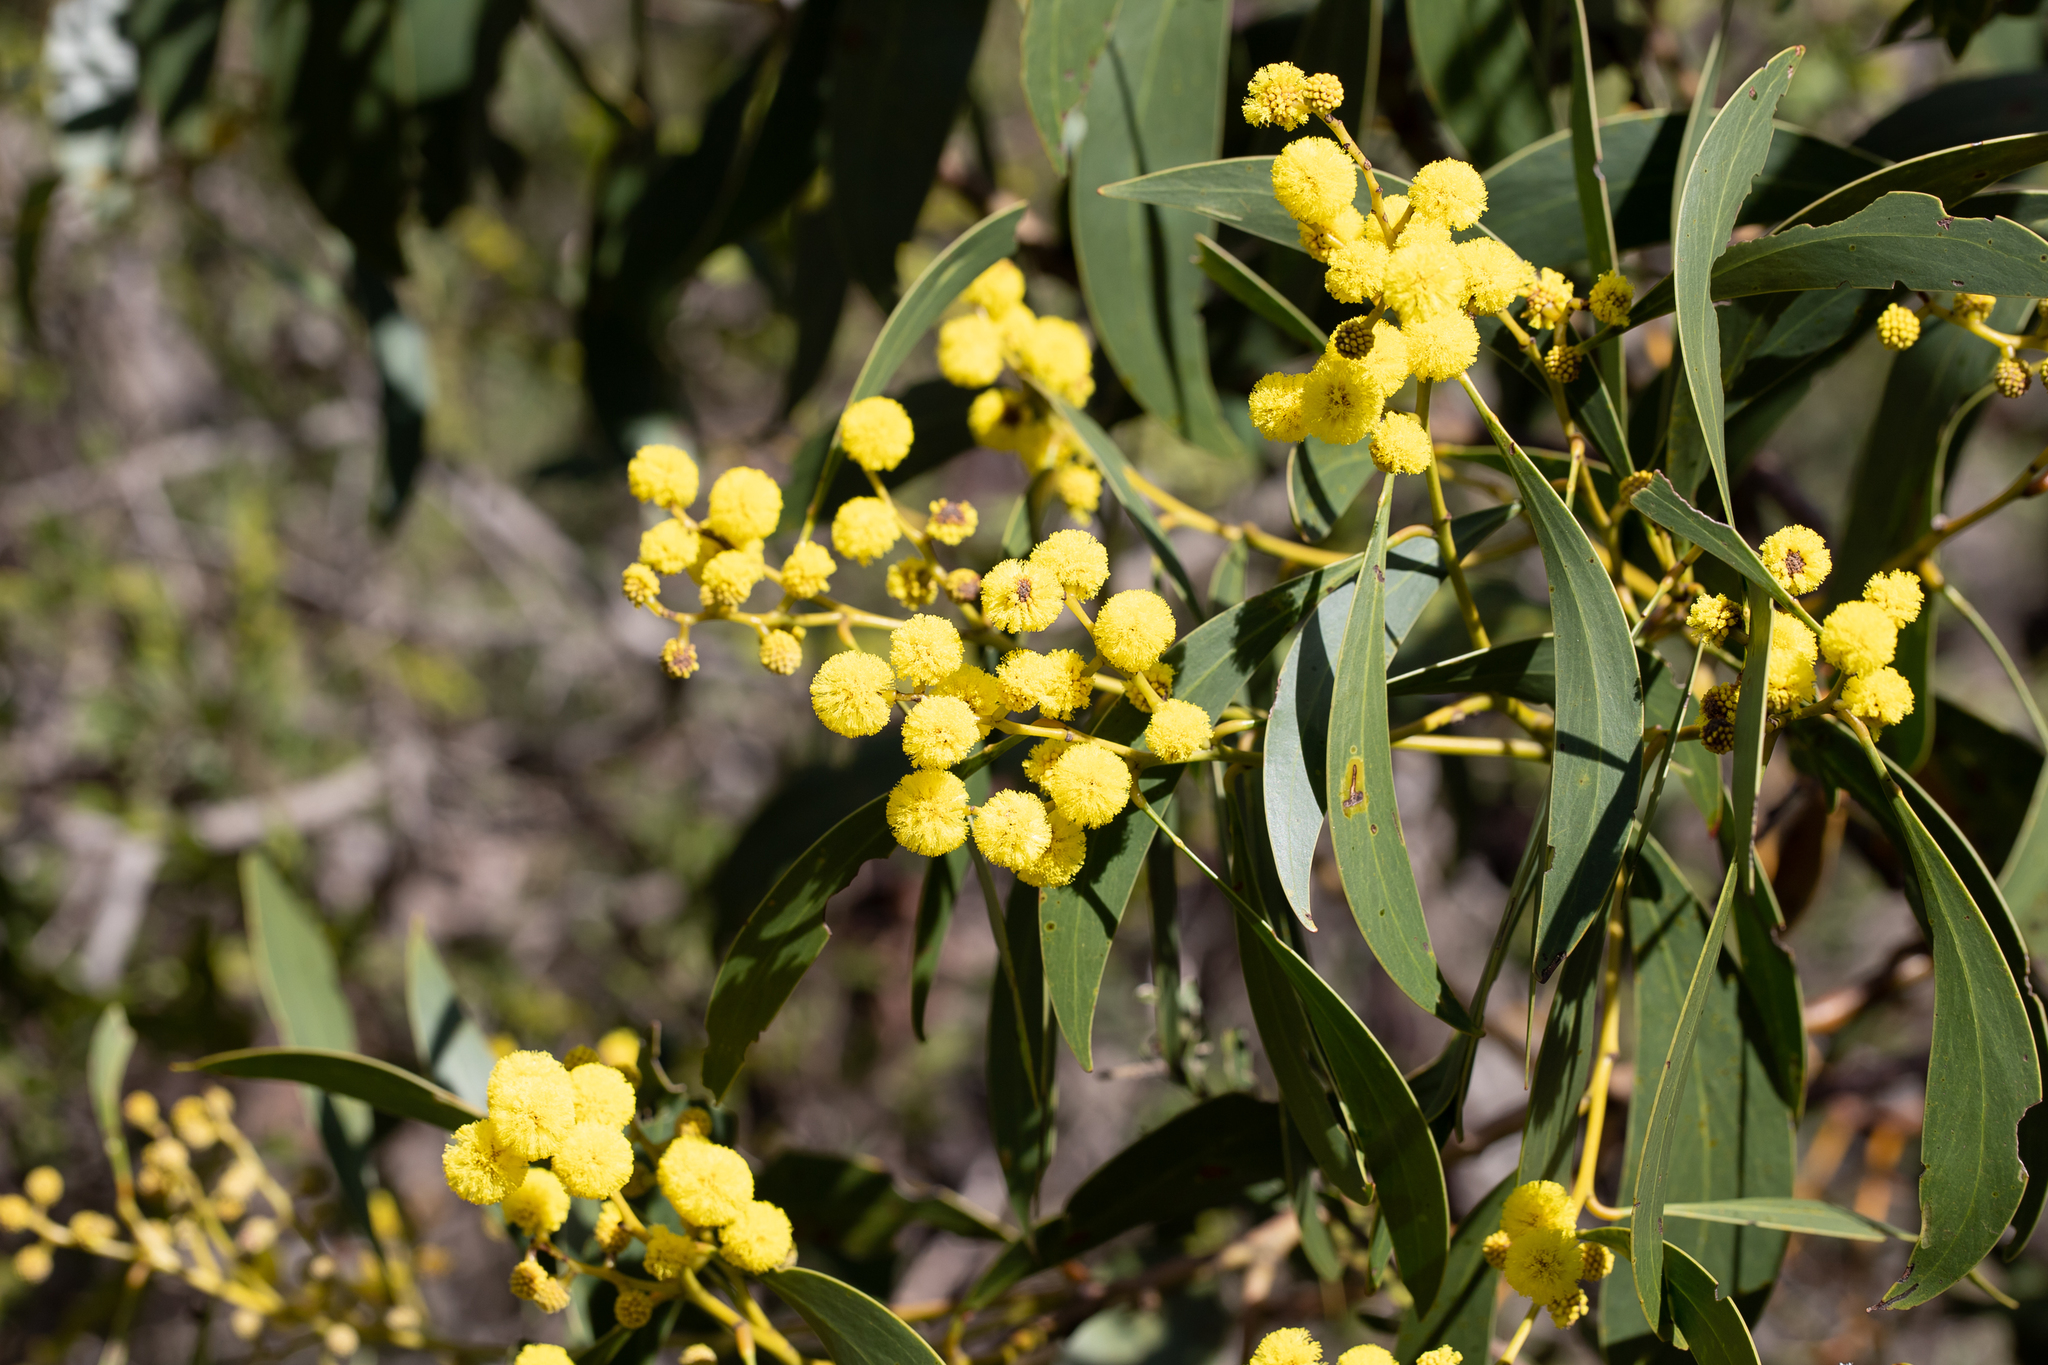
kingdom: Plantae
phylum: Tracheophyta
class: Magnoliopsida
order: Fabales
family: Fabaceae
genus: Acacia
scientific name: Acacia pycnantha
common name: Golden wattle
